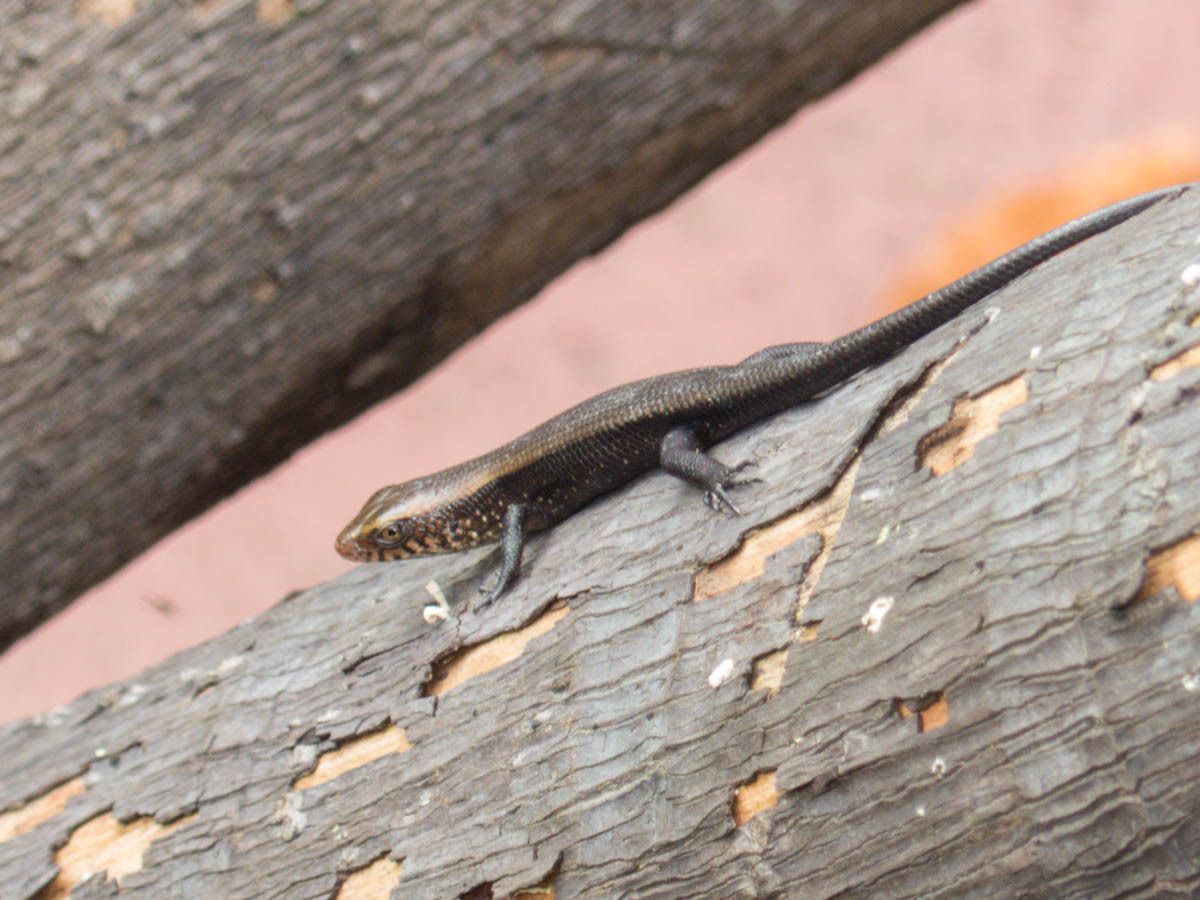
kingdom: Animalia
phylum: Chordata
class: Squamata
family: Scincidae
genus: Eutropis
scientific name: Eutropis multifasciata
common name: Common mabuya
